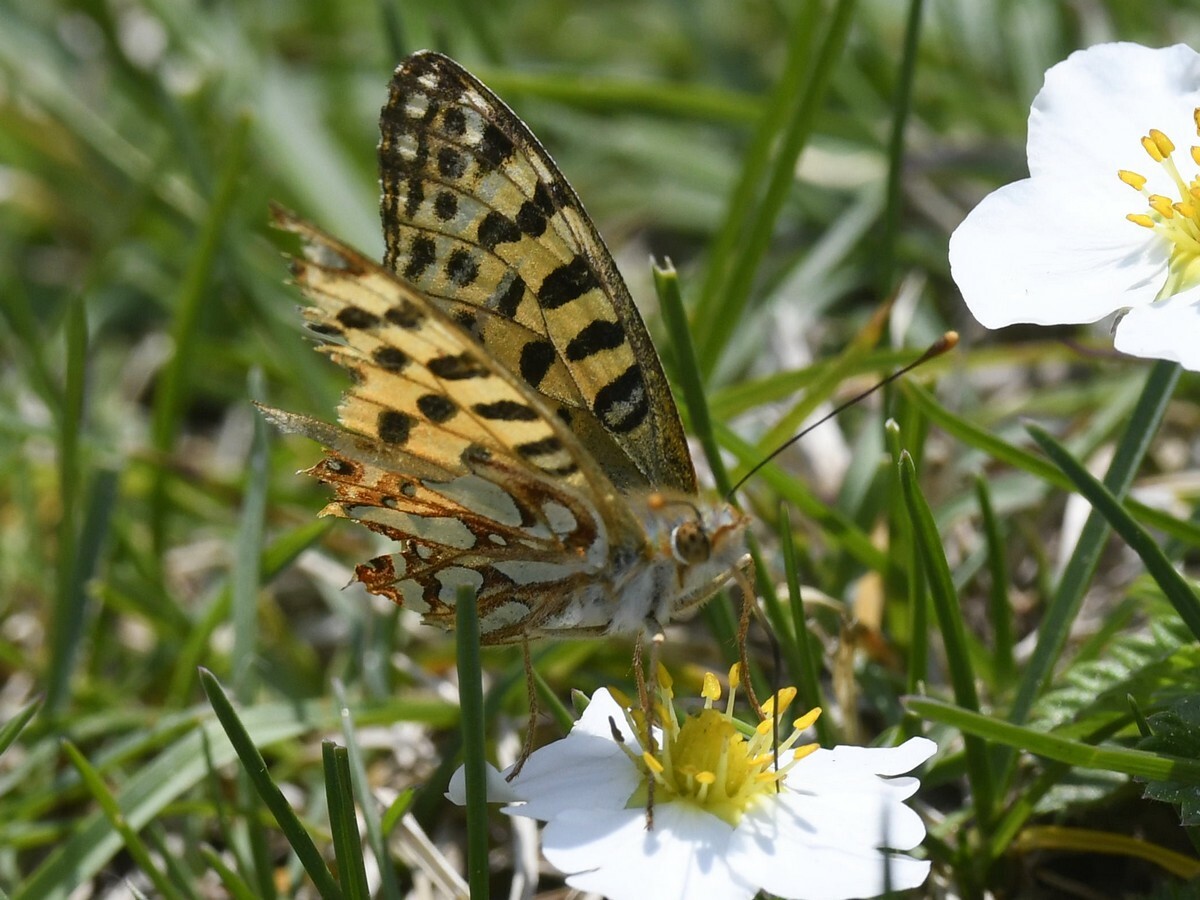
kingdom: Animalia
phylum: Arthropoda
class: Insecta
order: Lepidoptera
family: Nymphalidae
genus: Issoria
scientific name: Issoria
